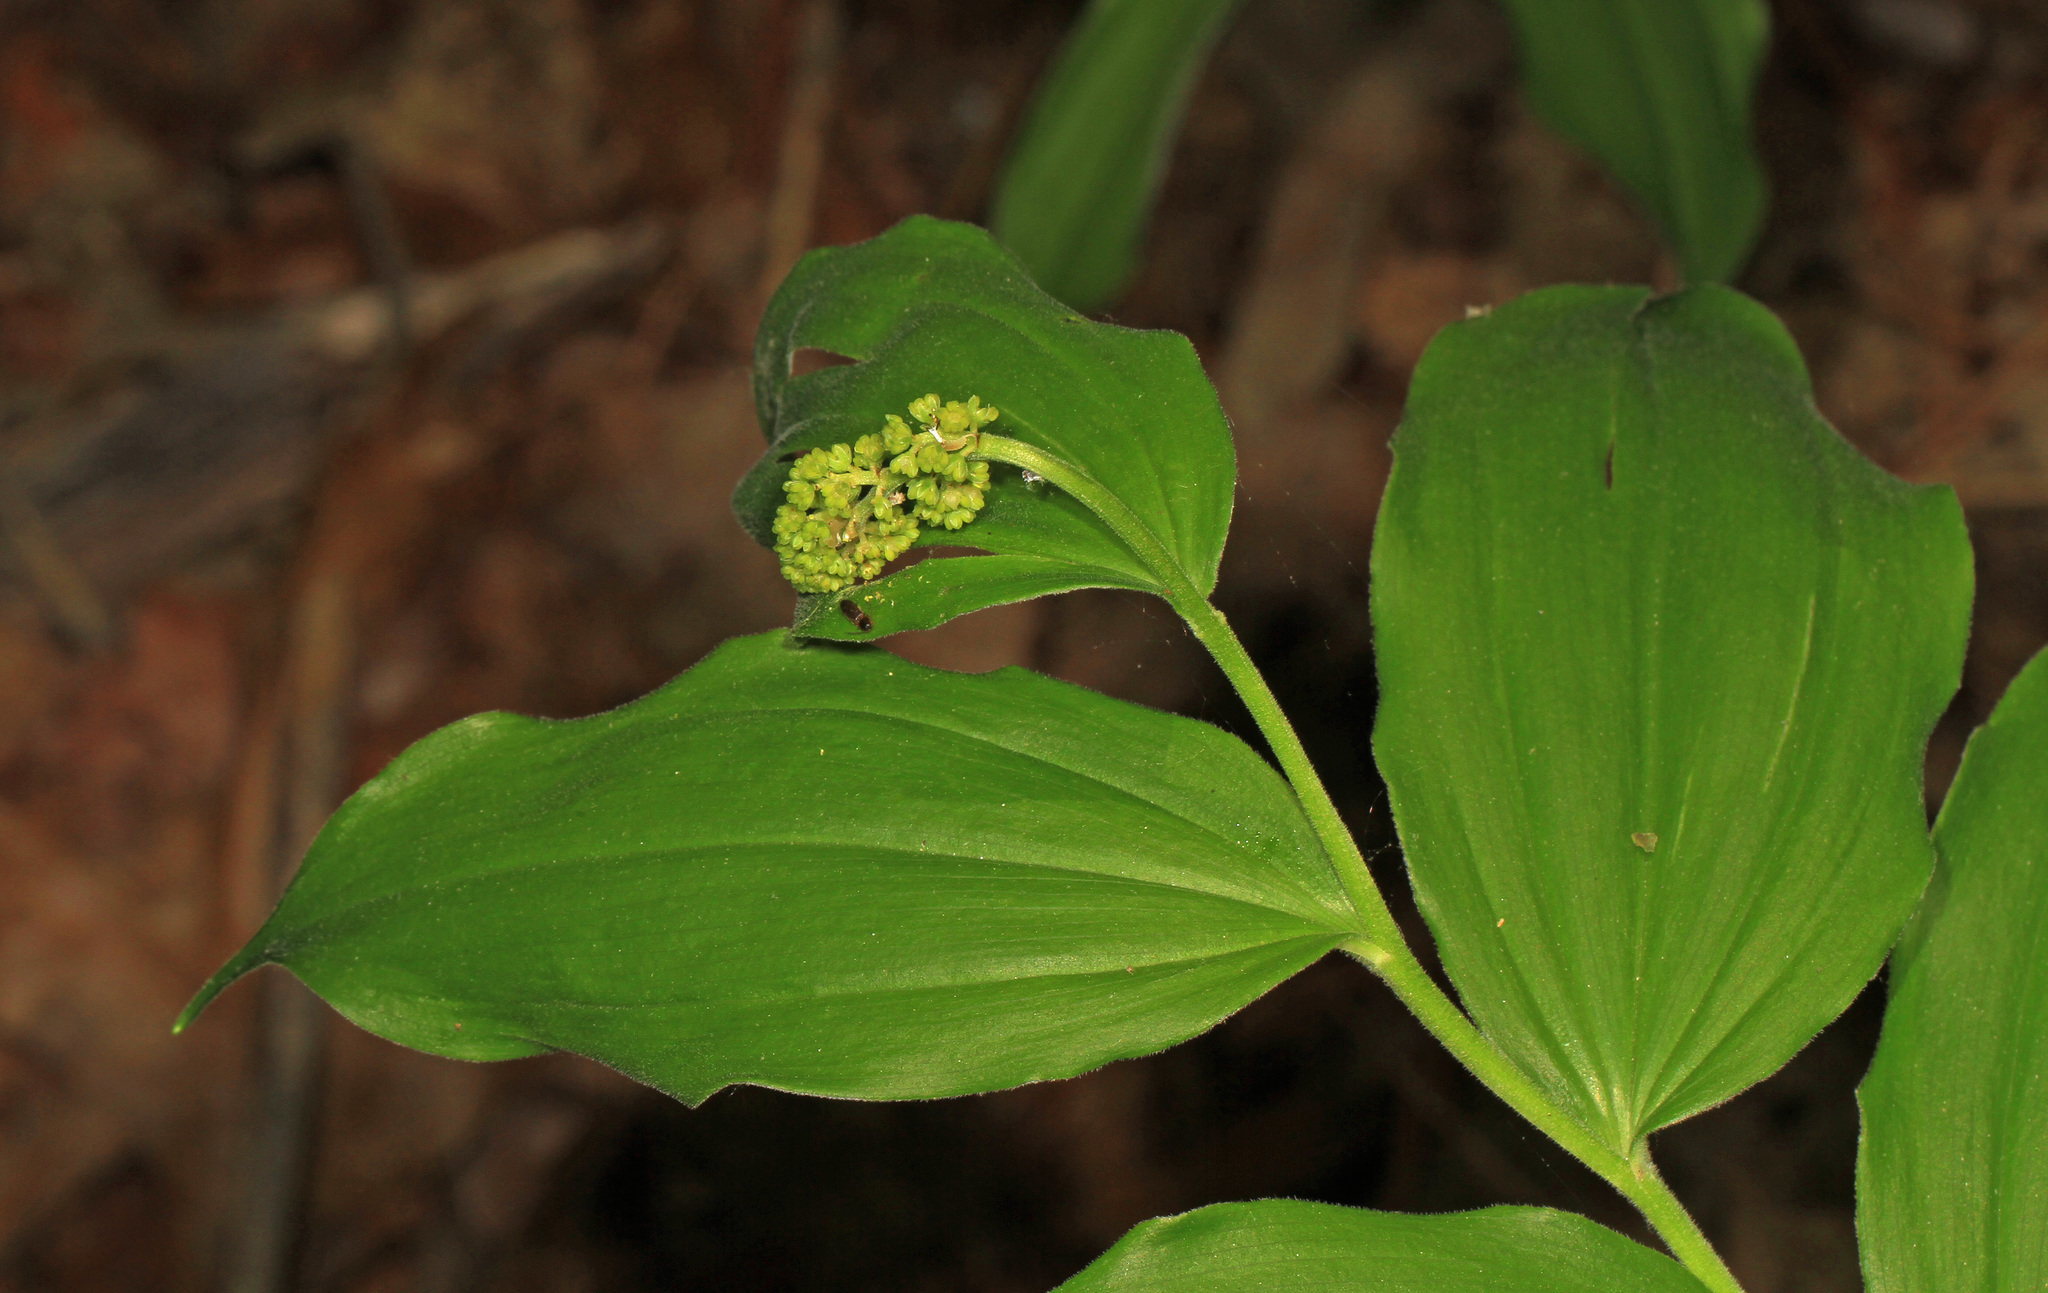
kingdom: Plantae
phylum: Tracheophyta
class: Liliopsida
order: Asparagales
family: Asparagaceae
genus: Maianthemum
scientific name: Maianthemum racemosum
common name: False spikenard
